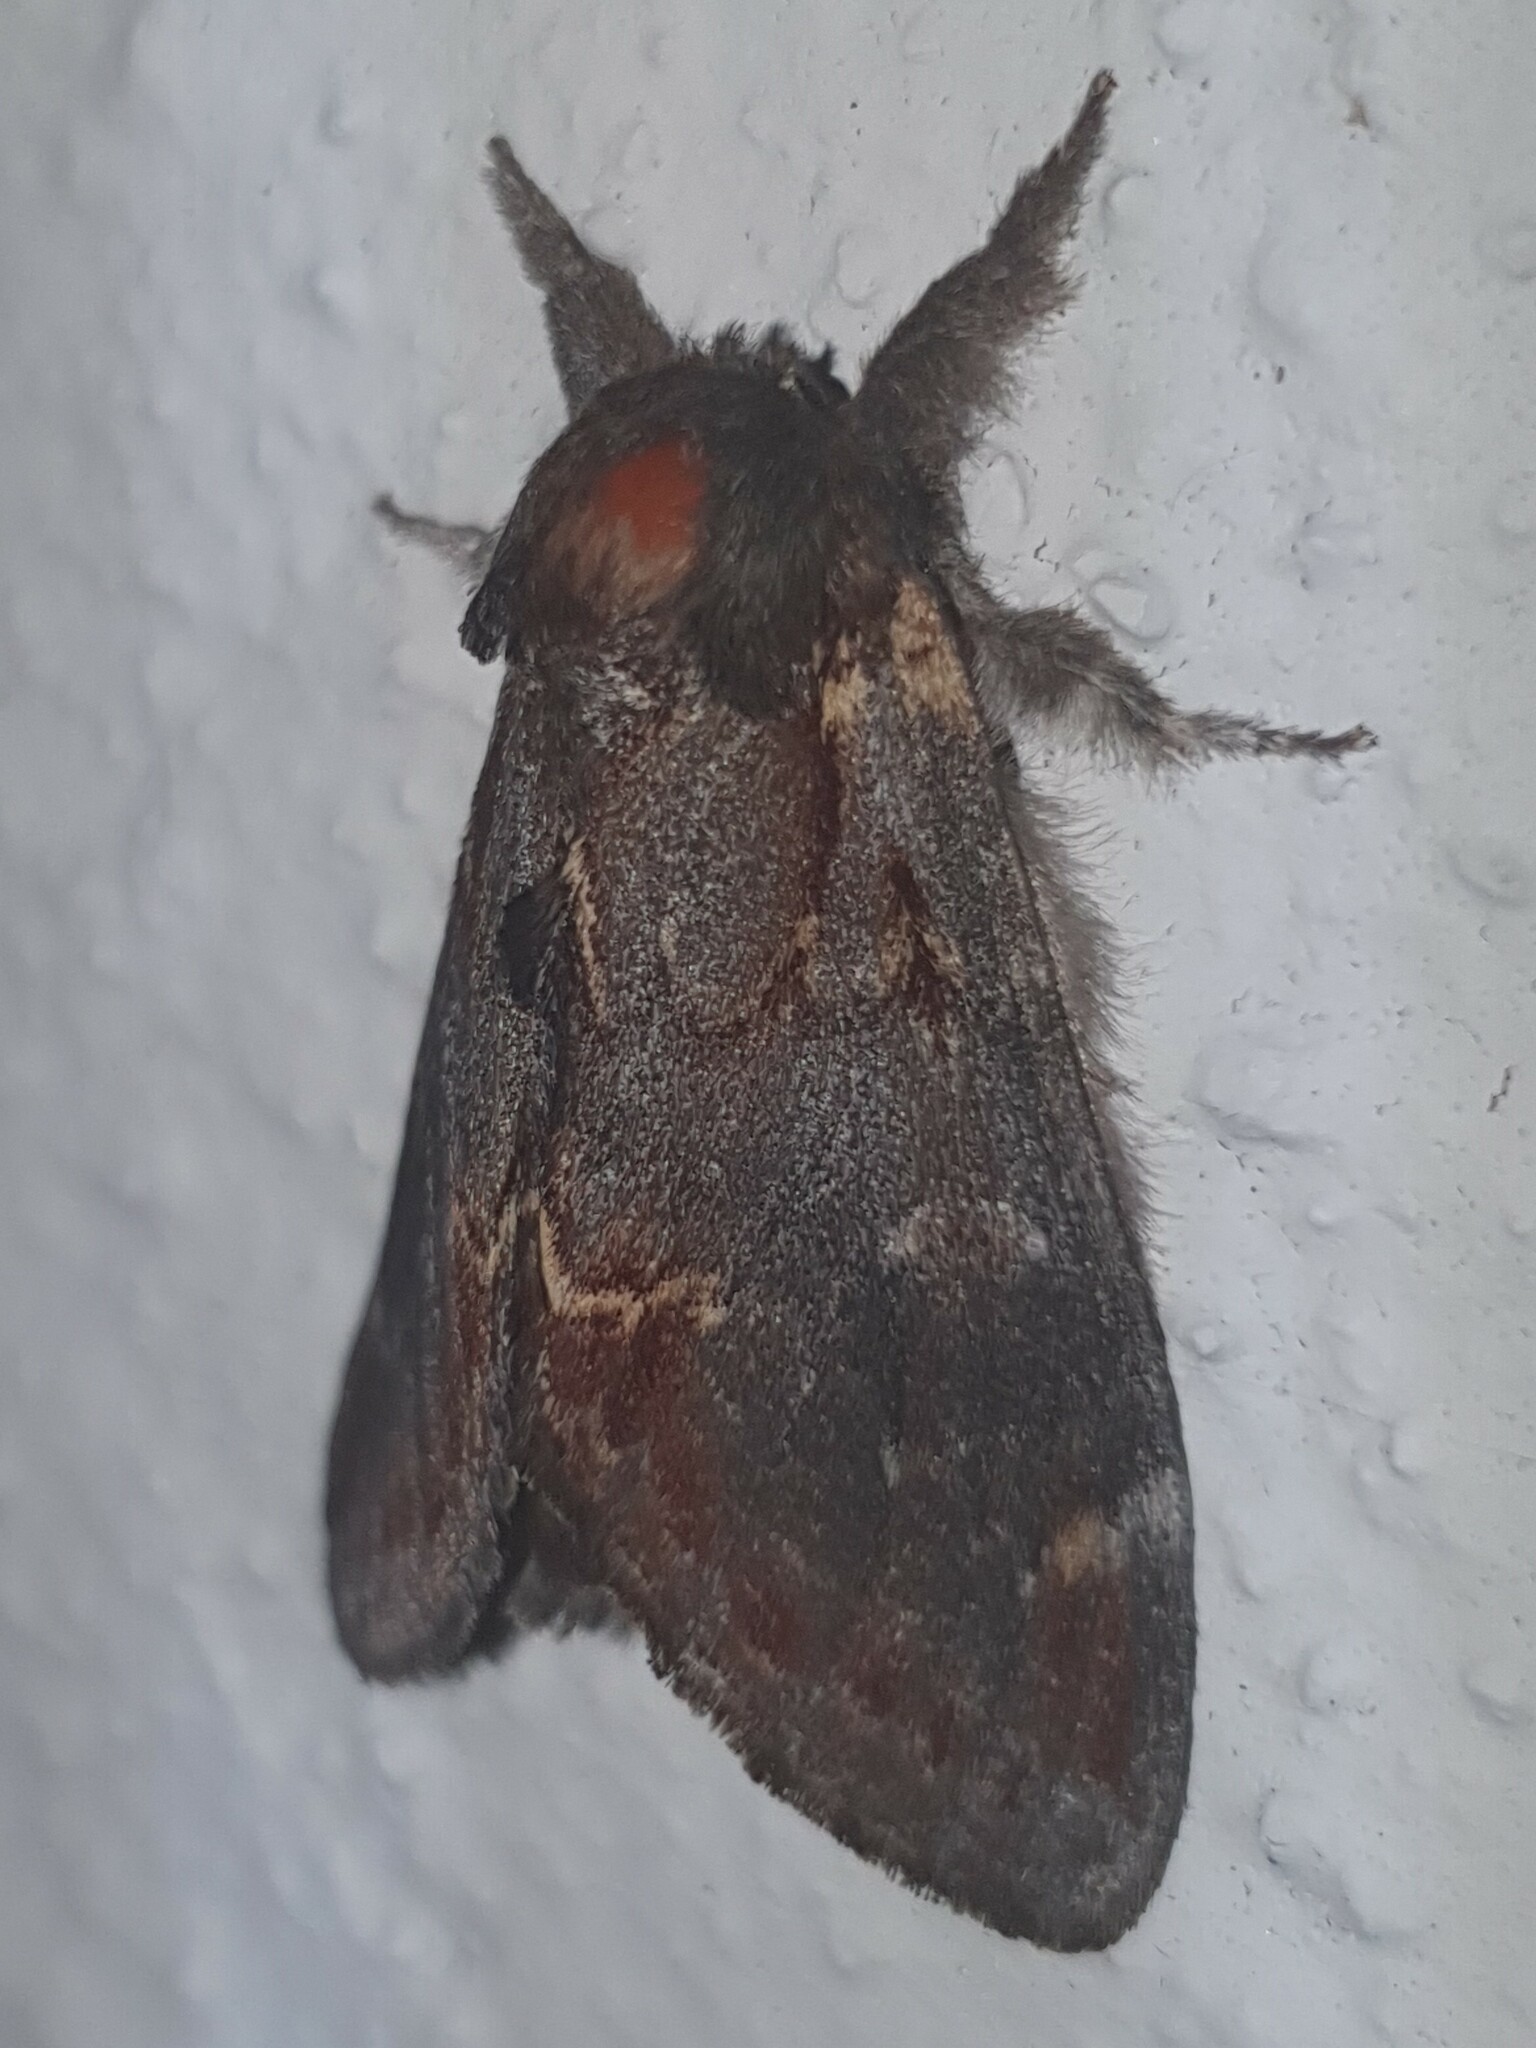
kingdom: Animalia
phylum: Arthropoda
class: Insecta
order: Lepidoptera
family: Notodontidae
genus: Notodonta
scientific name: Notodonta dromedarius
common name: Iron prominent
